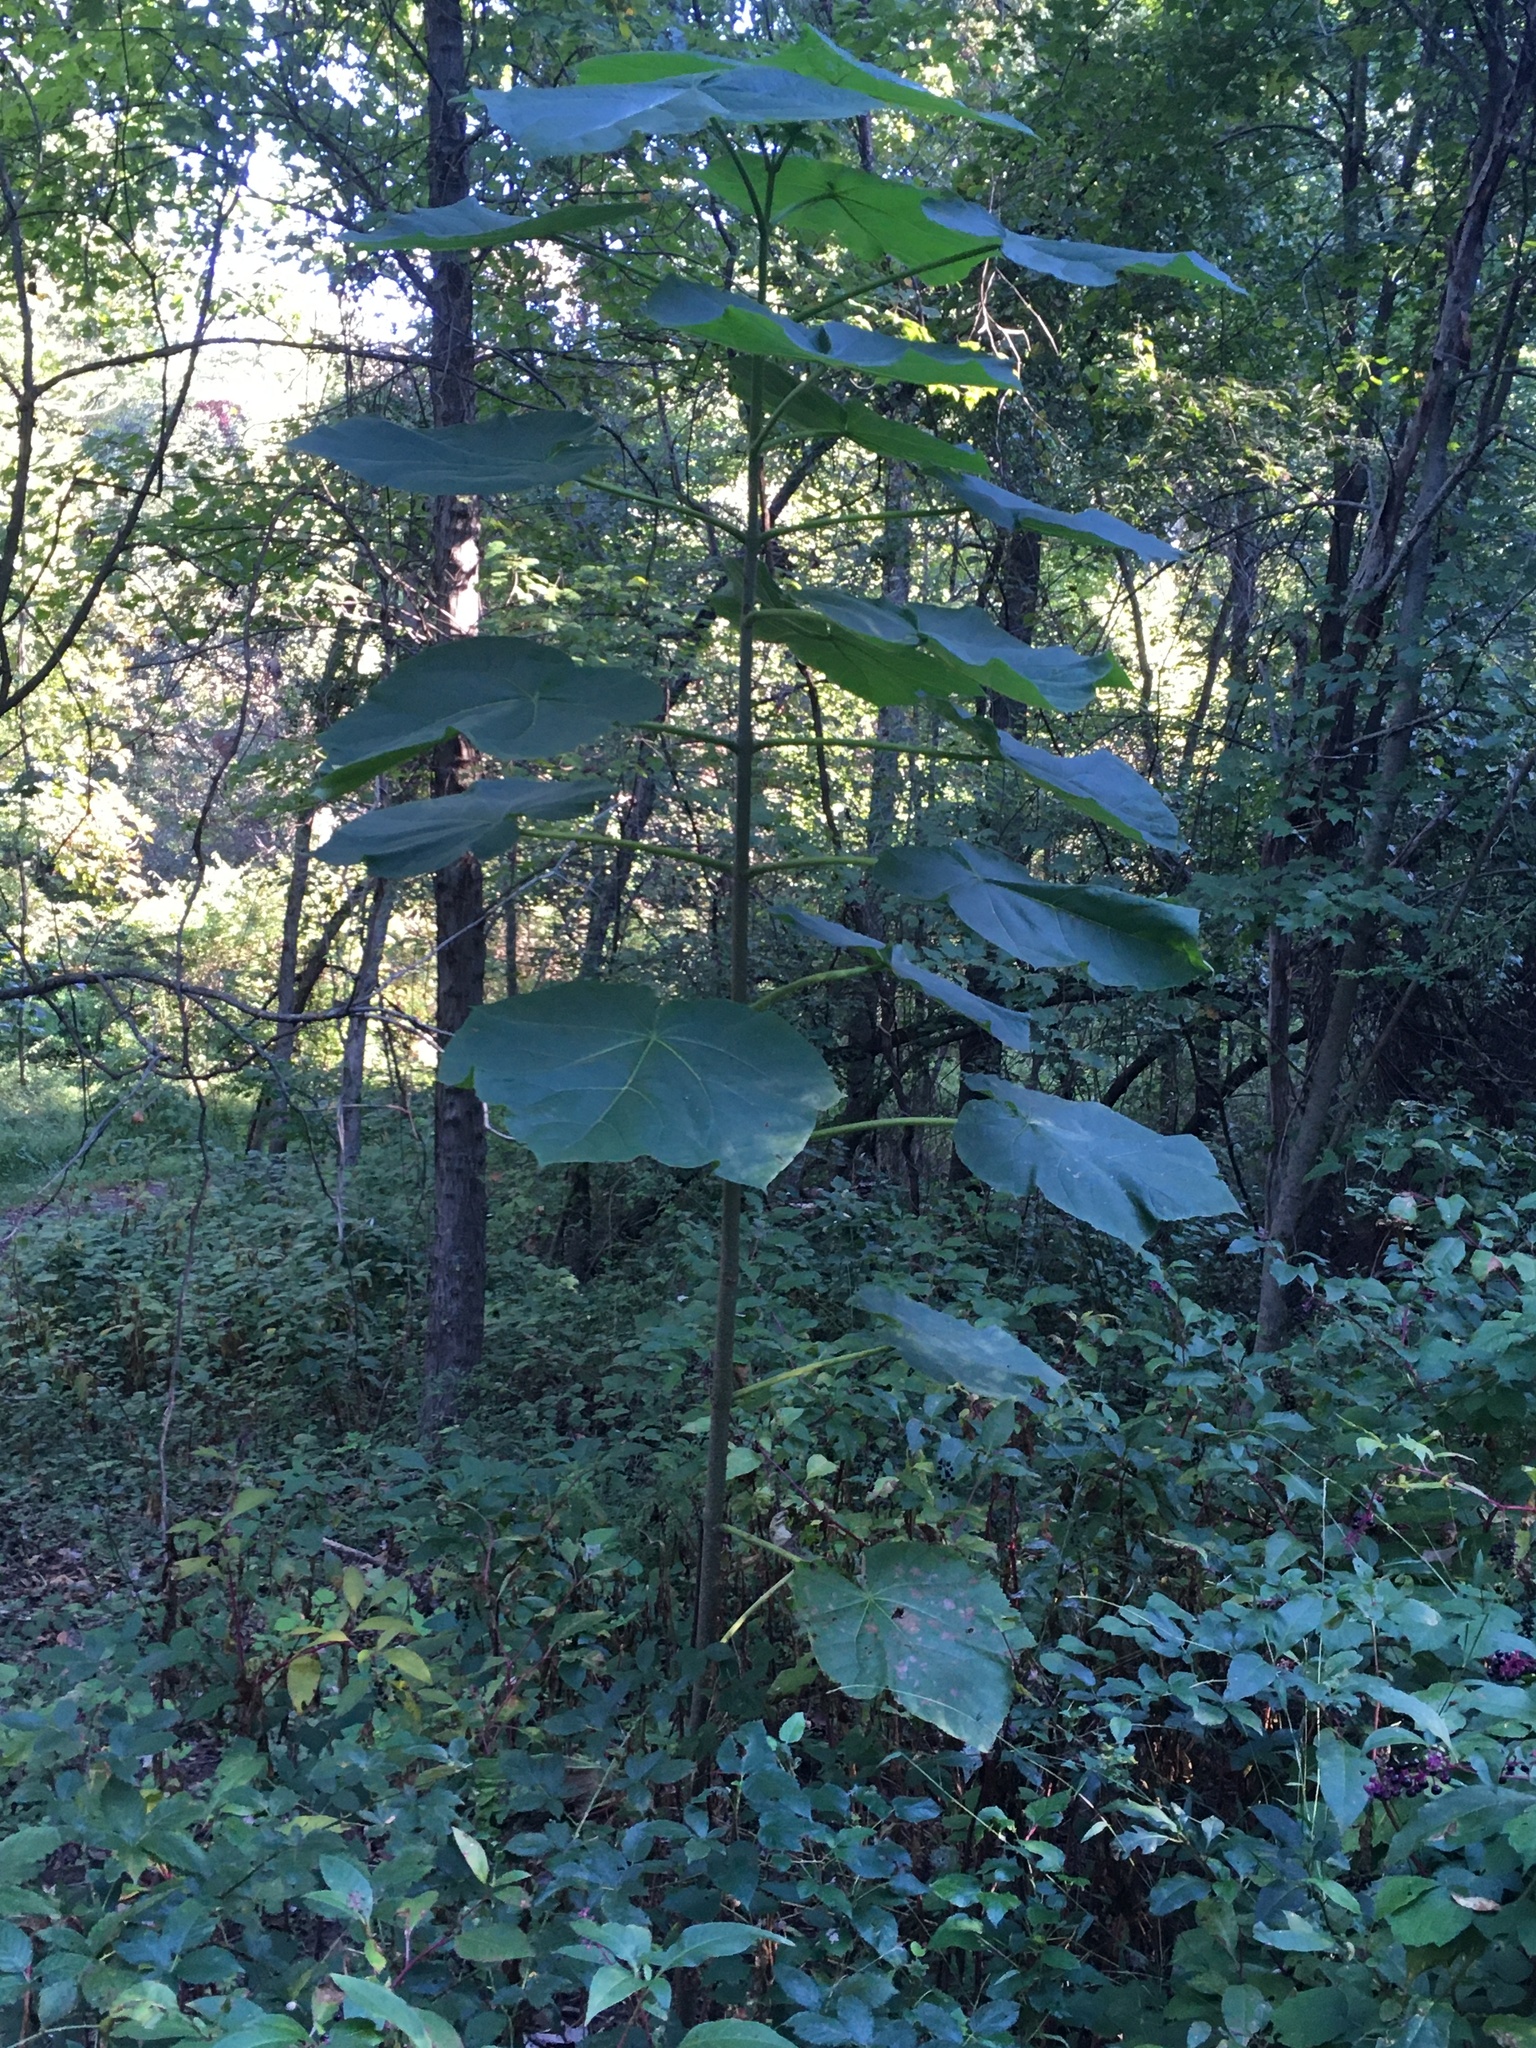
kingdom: Plantae
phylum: Tracheophyta
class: Magnoliopsida
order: Lamiales
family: Paulowniaceae
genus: Paulownia
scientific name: Paulownia tomentosa
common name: Foxglove-tree
